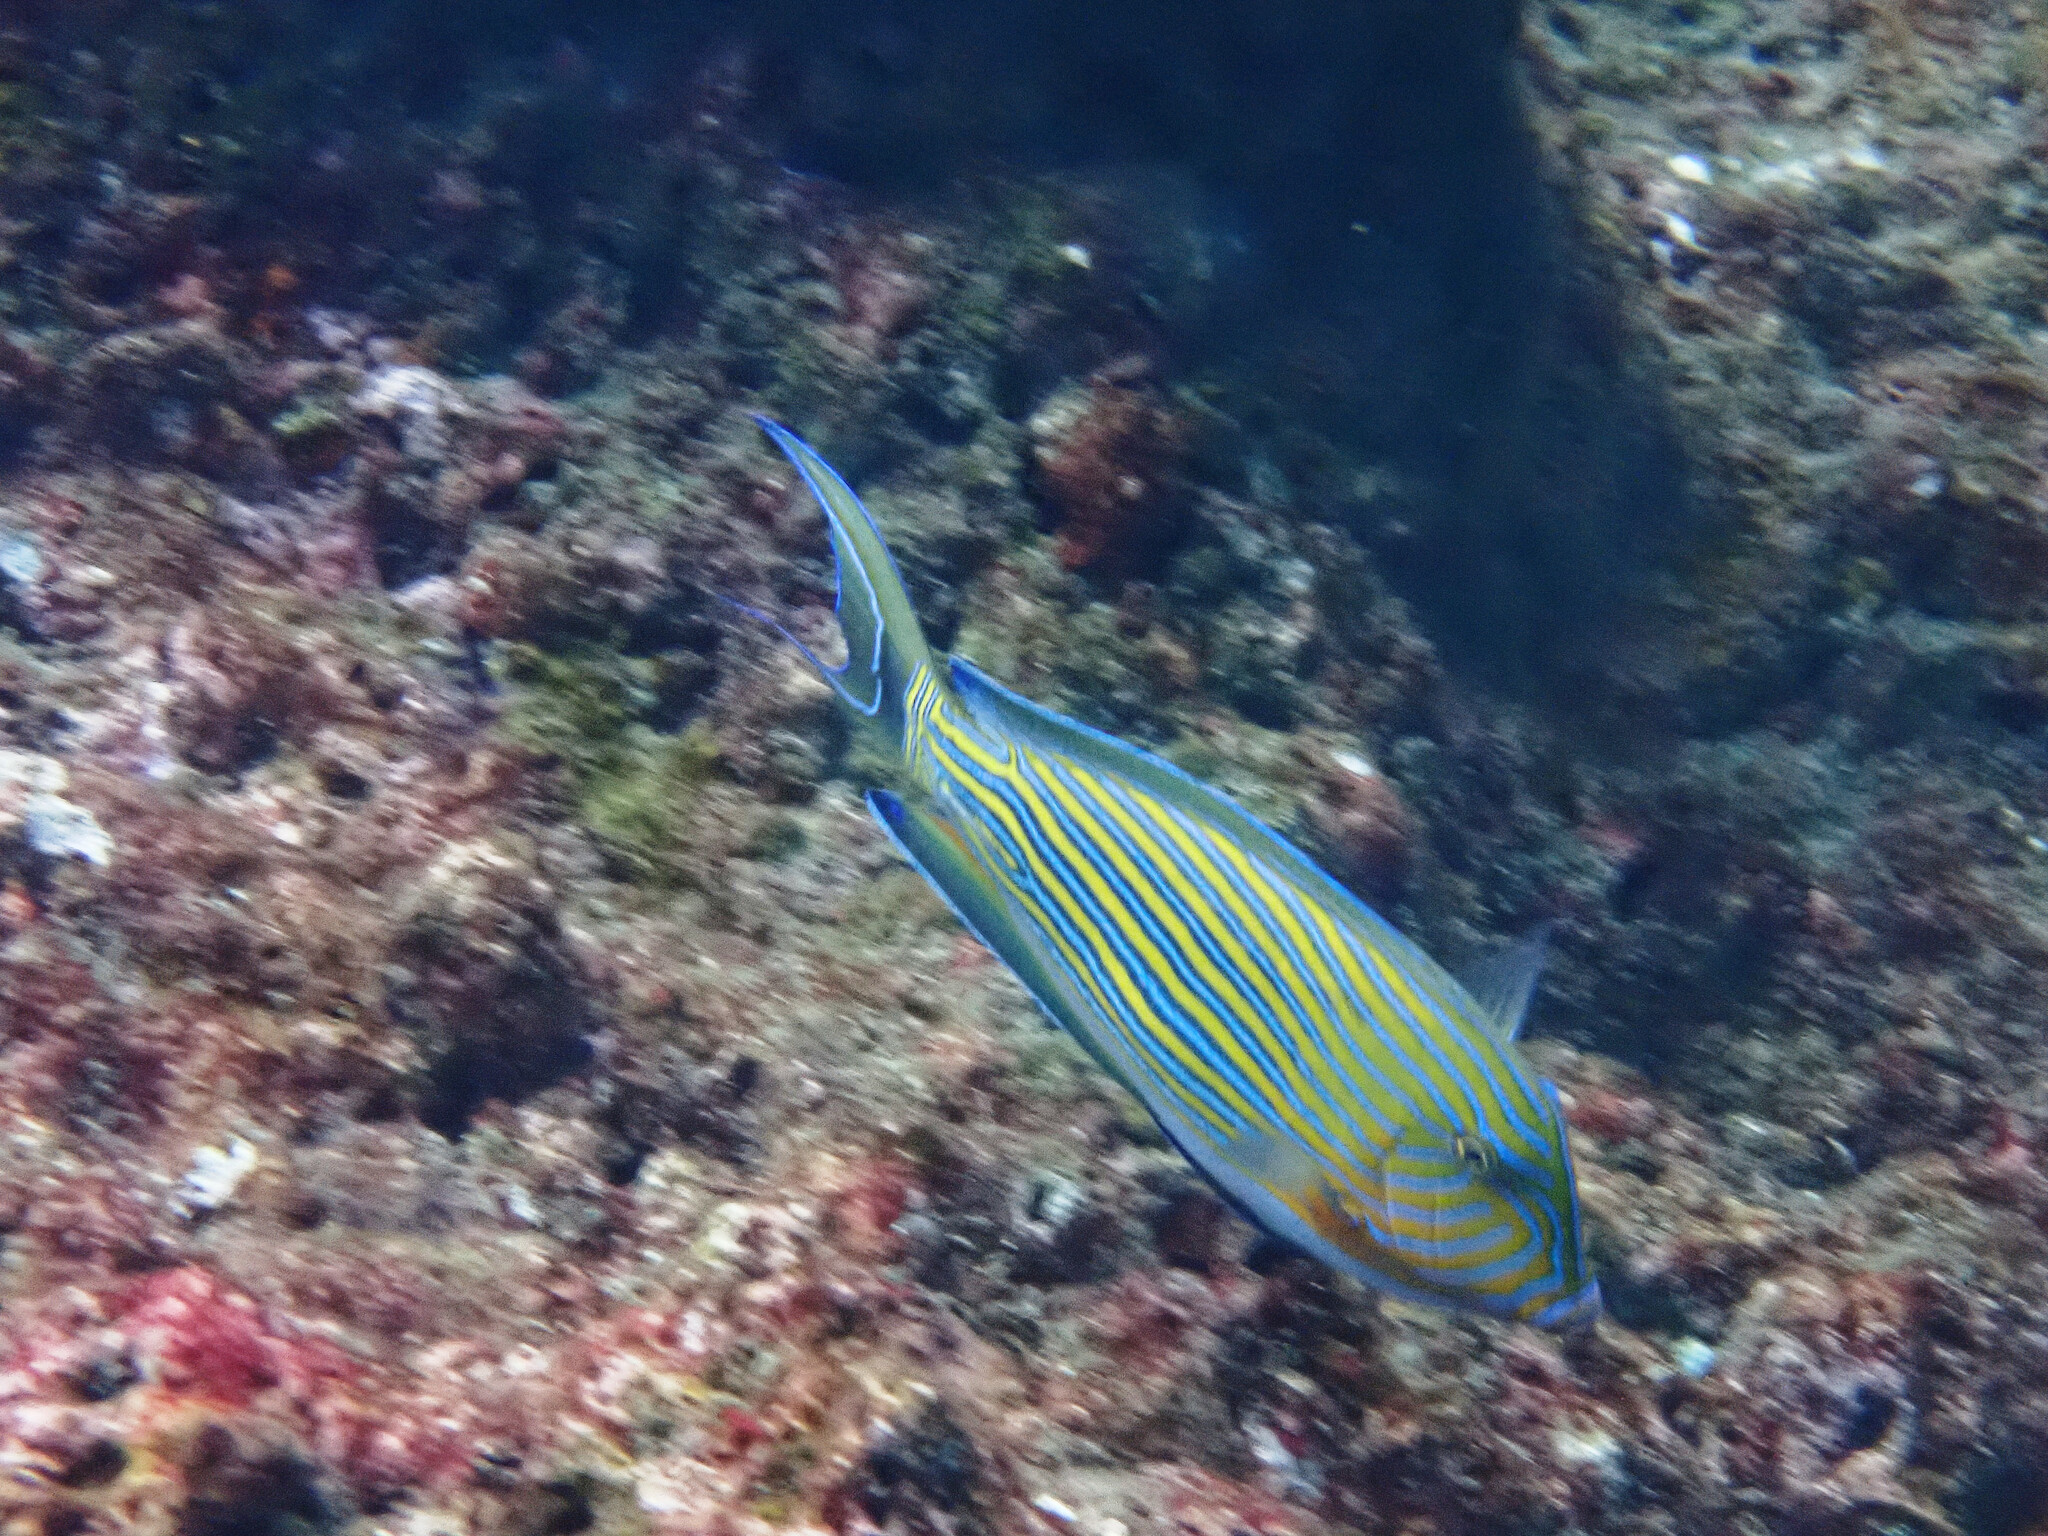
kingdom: Animalia
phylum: Chordata
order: Perciformes
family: Acanthuridae
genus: Acanthurus
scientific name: Acanthurus lineatus
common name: Striped surgeonfish
